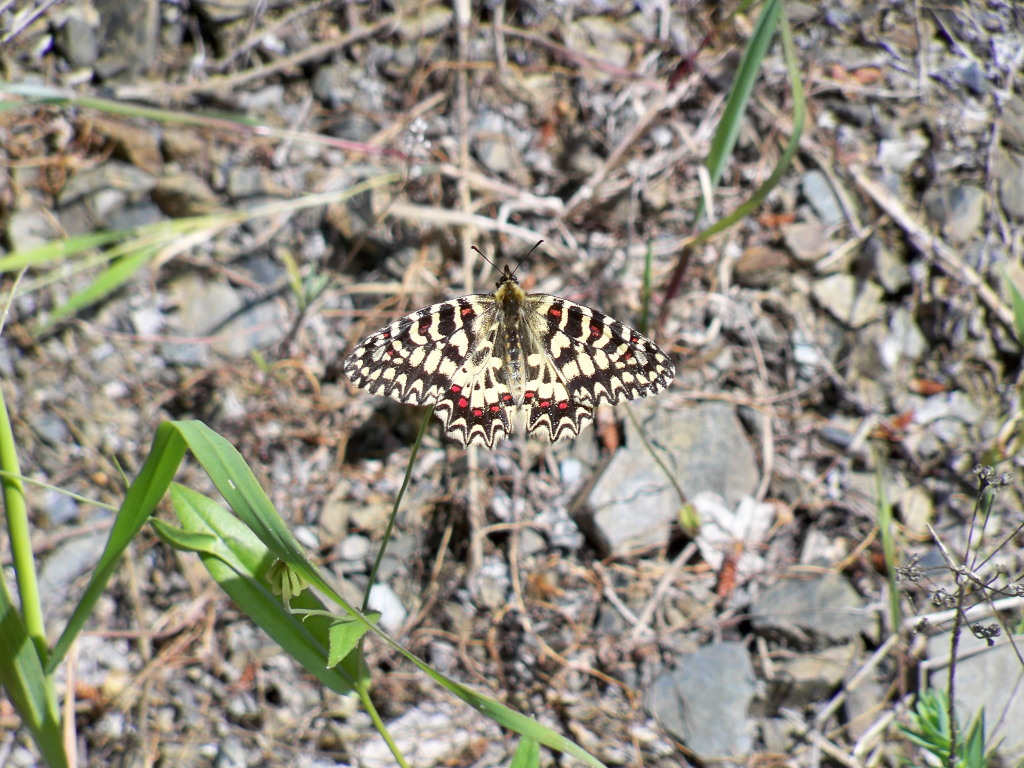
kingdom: Animalia
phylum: Arthropoda
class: Insecta
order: Lepidoptera
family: Papilionidae
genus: Zerynthia
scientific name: Zerynthia rumina
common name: Spanish festoon
